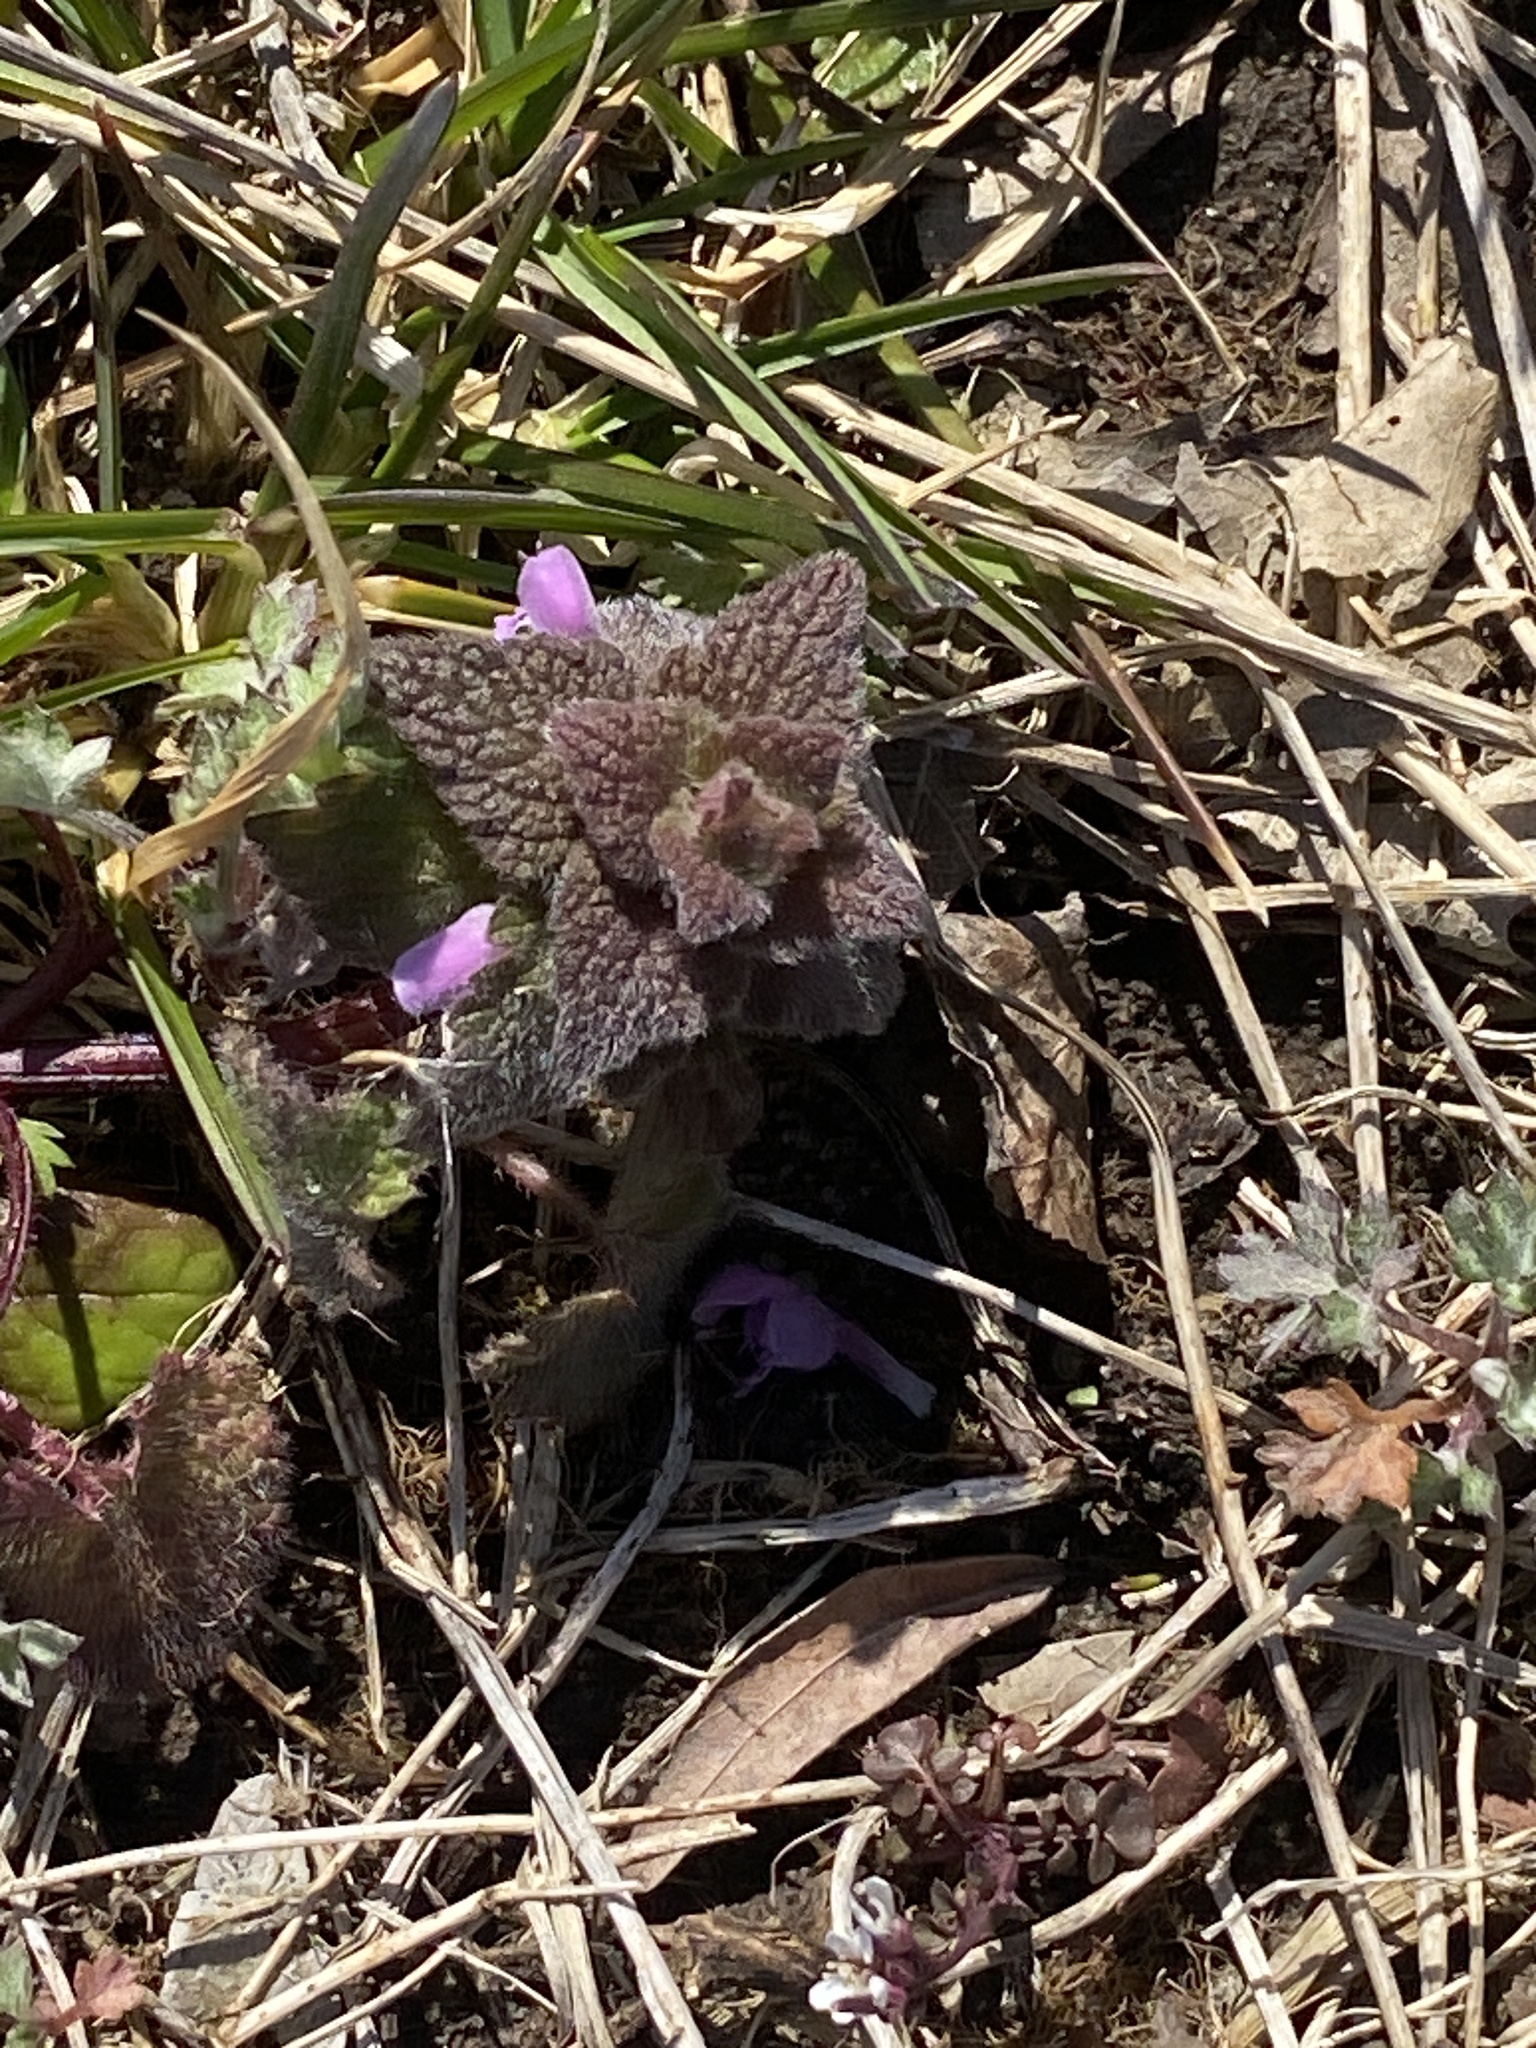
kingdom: Plantae
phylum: Tracheophyta
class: Magnoliopsida
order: Lamiales
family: Lamiaceae
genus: Lamium
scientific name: Lamium purpureum
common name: Red dead-nettle
